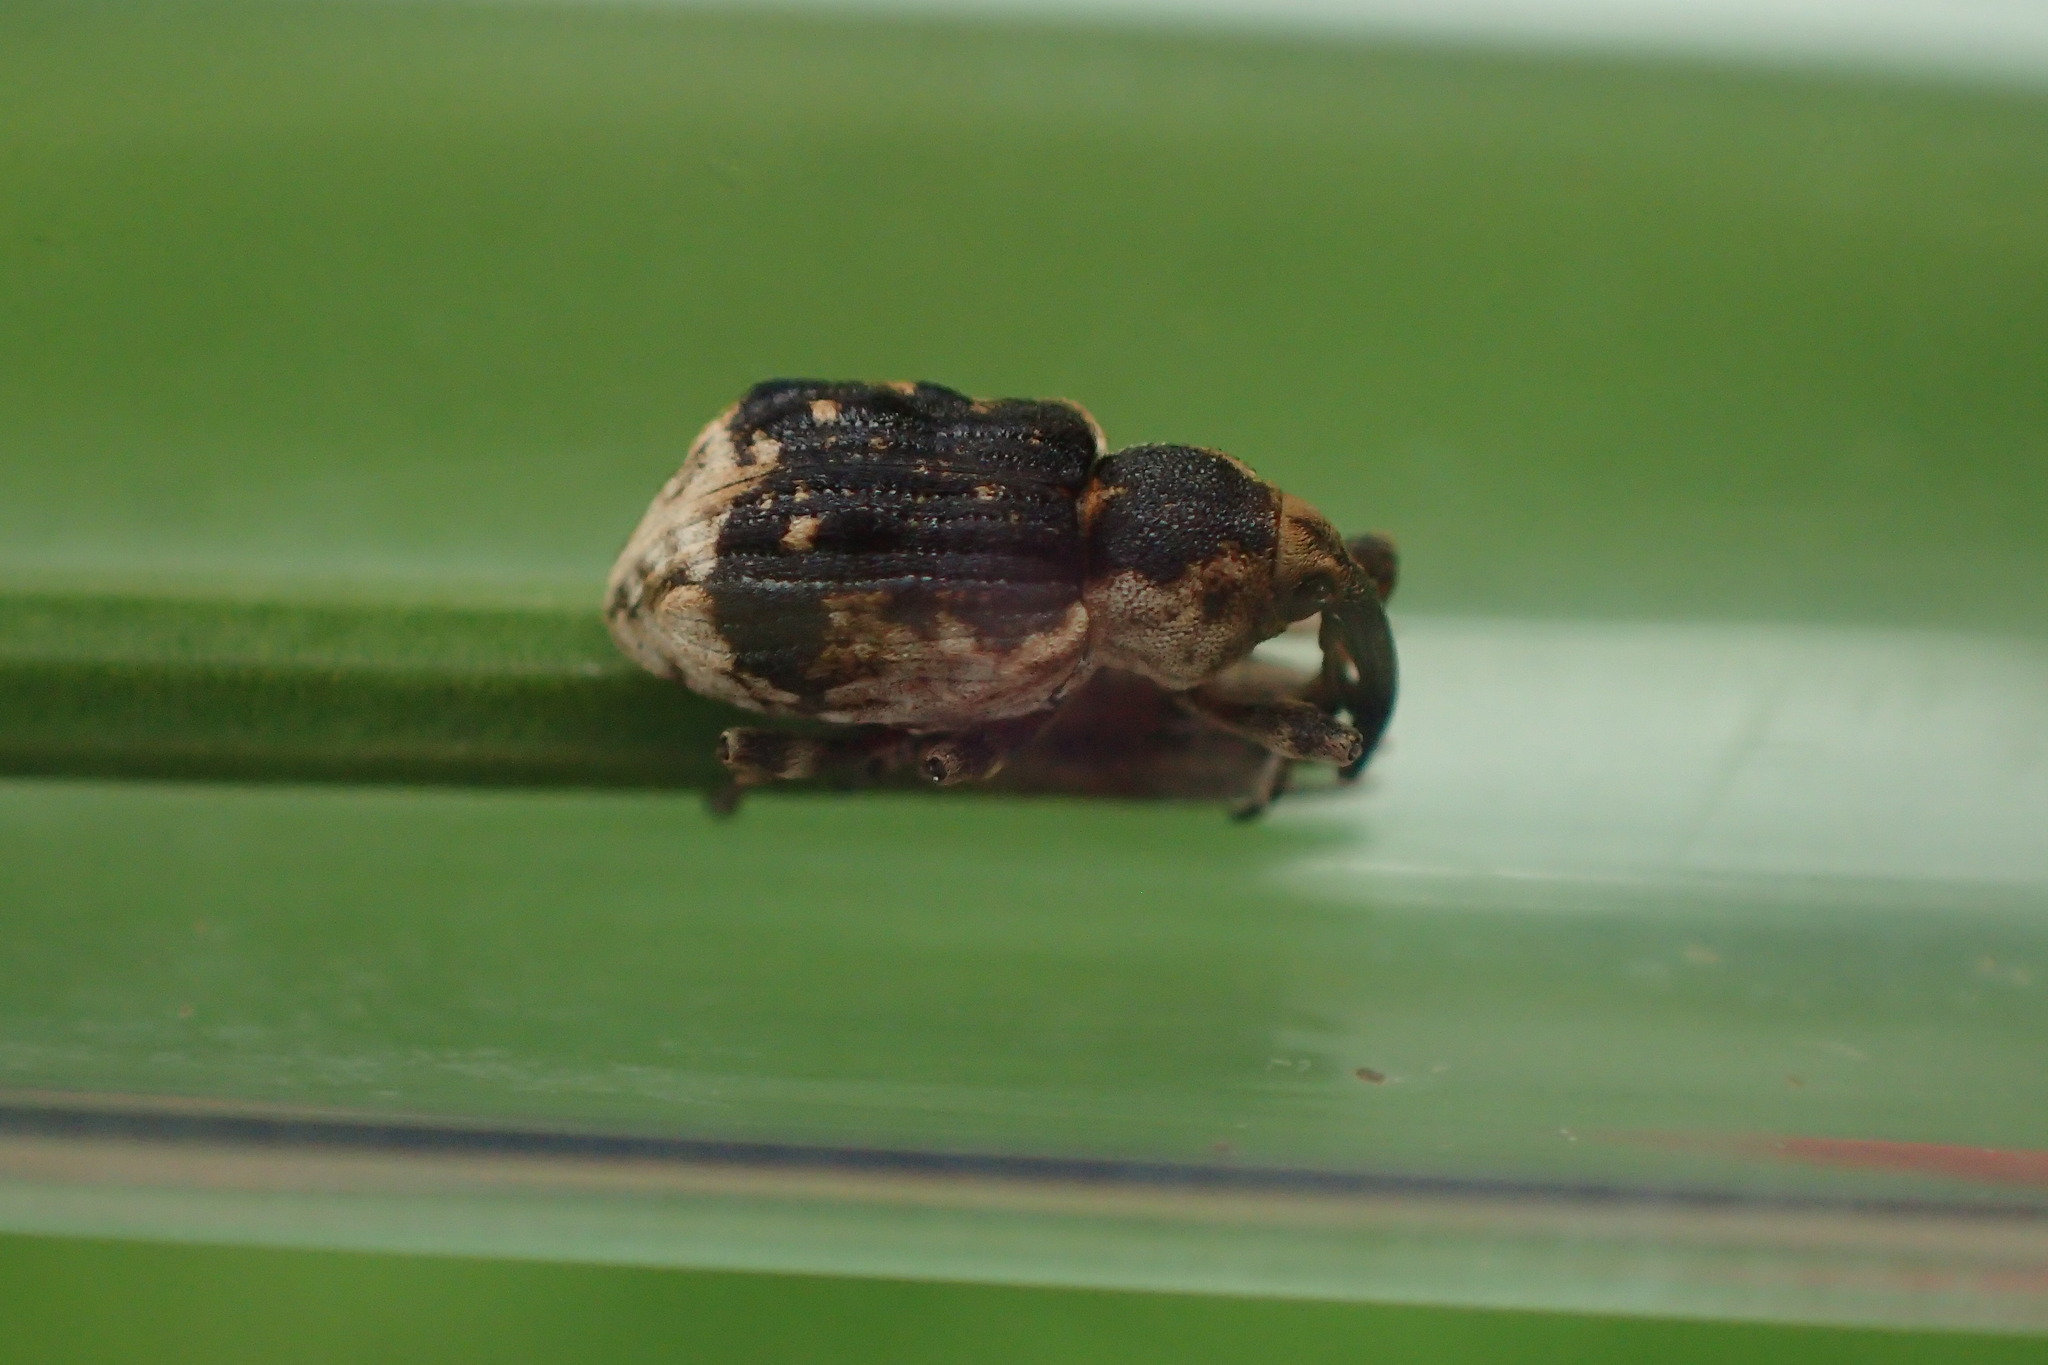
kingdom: Animalia
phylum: Arthropoda
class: Insecta
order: Coleoptera
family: Brachyceridae
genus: Grypus
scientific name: Grypus equiseti
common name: Horsetail weevil
